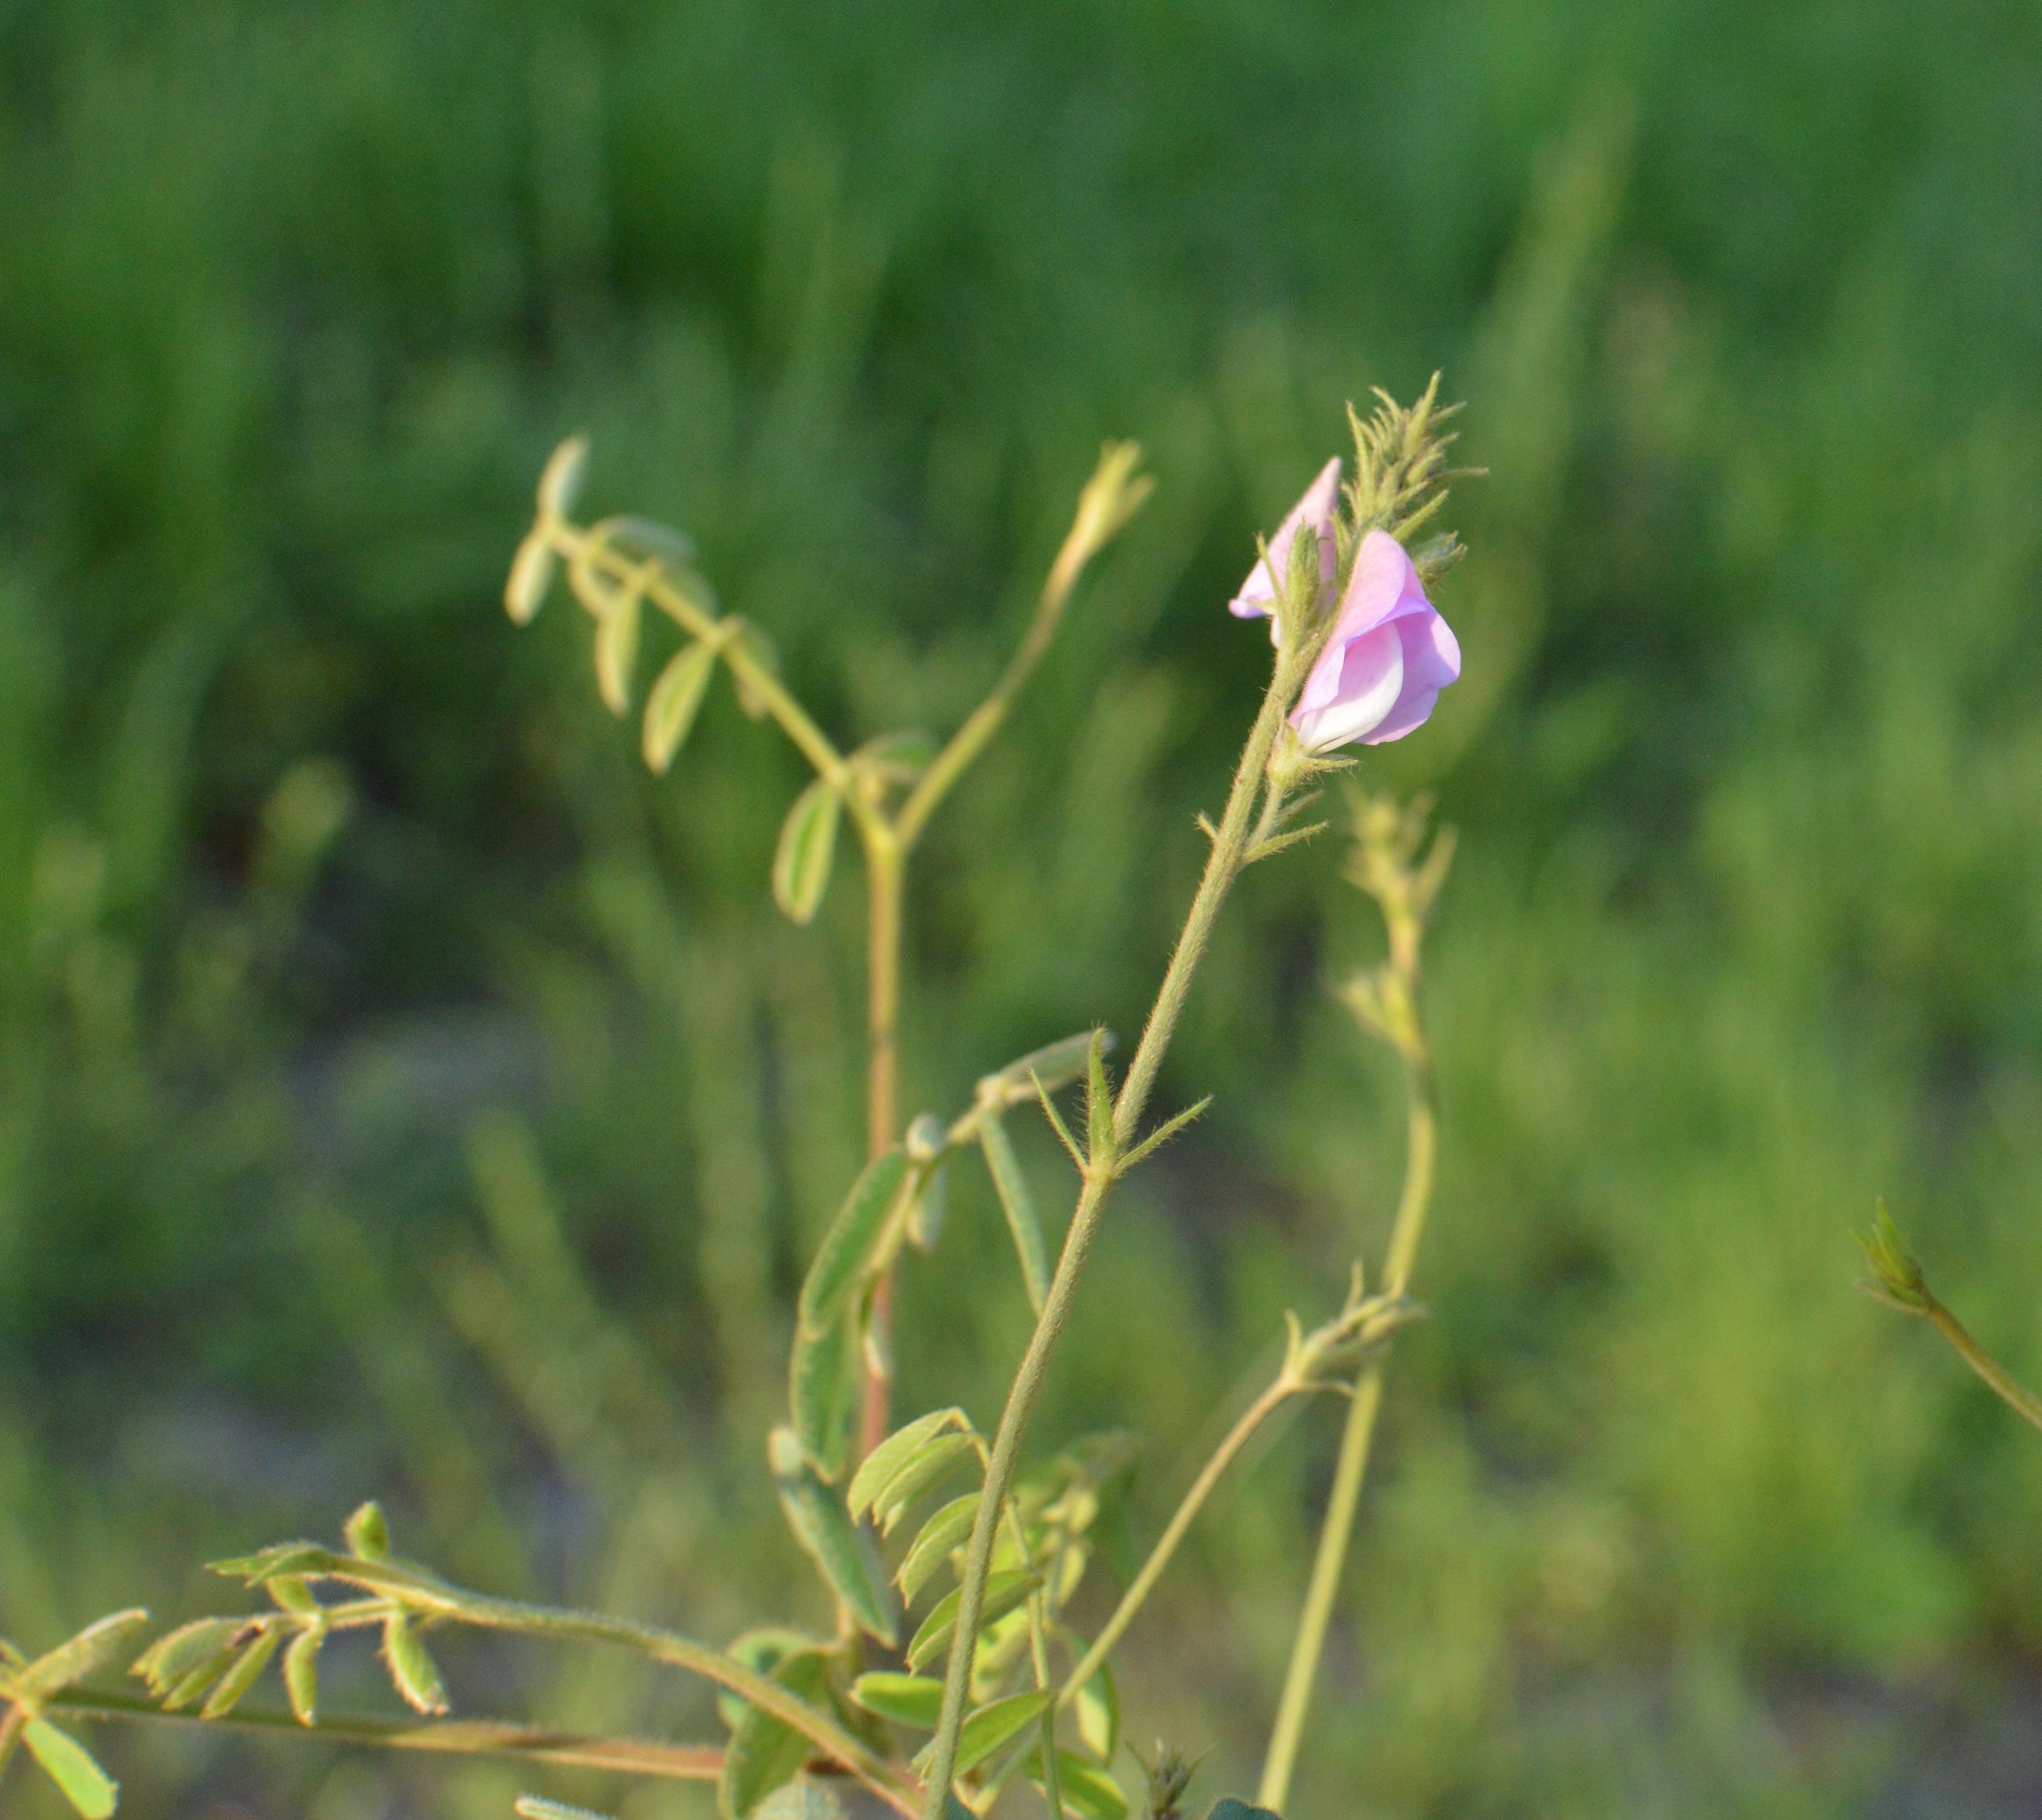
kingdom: Plantae
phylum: Tracheophyta
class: Magnoliopsida
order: Fabales
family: Fabaceae
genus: Tephrosia
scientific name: Tephrosia spicata
